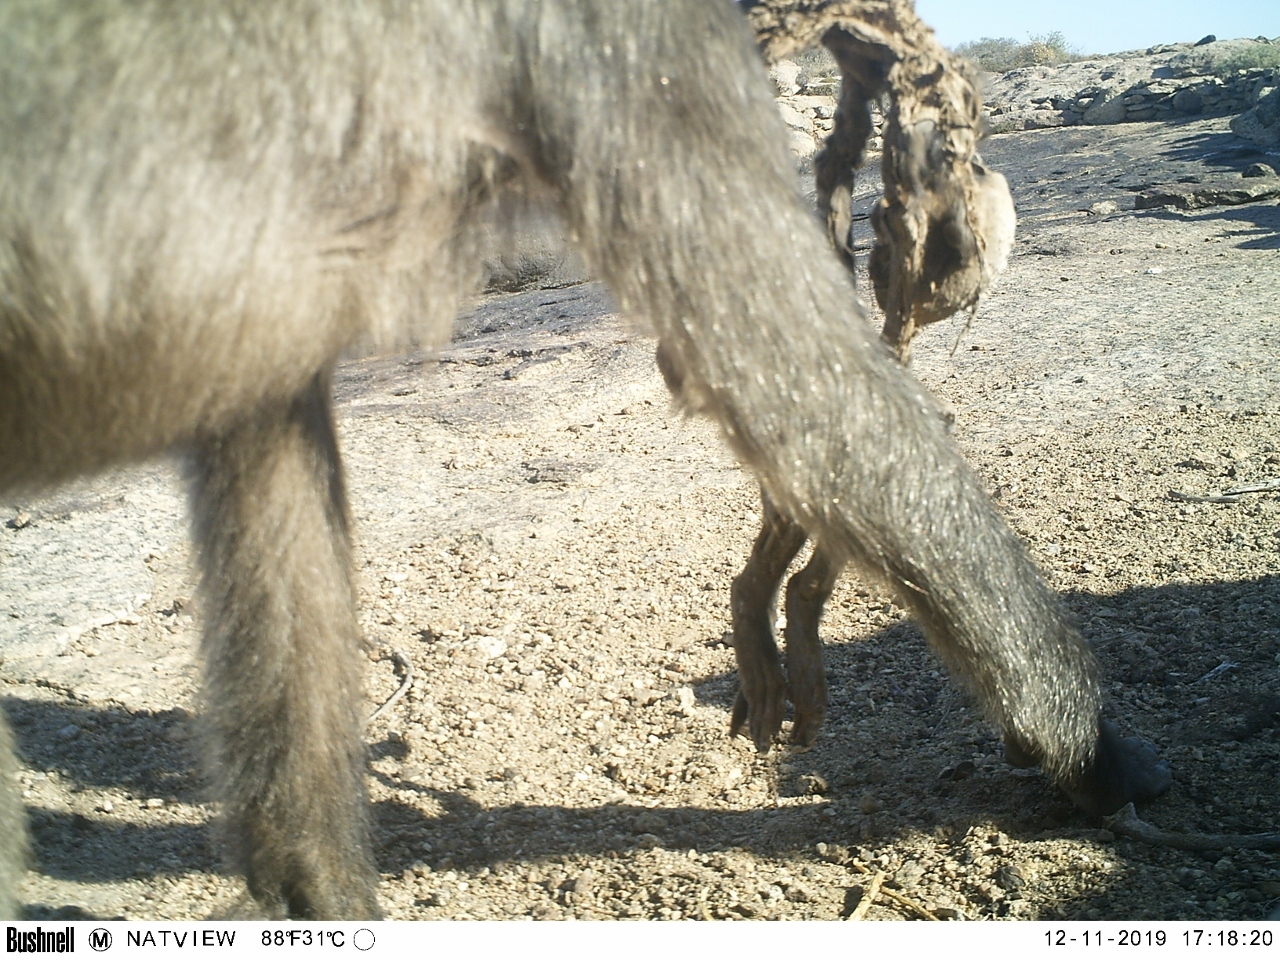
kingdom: Animalia
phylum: Chordata
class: Mammalia
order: Primates
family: Cercopithecidae
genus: Papio
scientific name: Papio ursinus
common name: Chacma baboon
